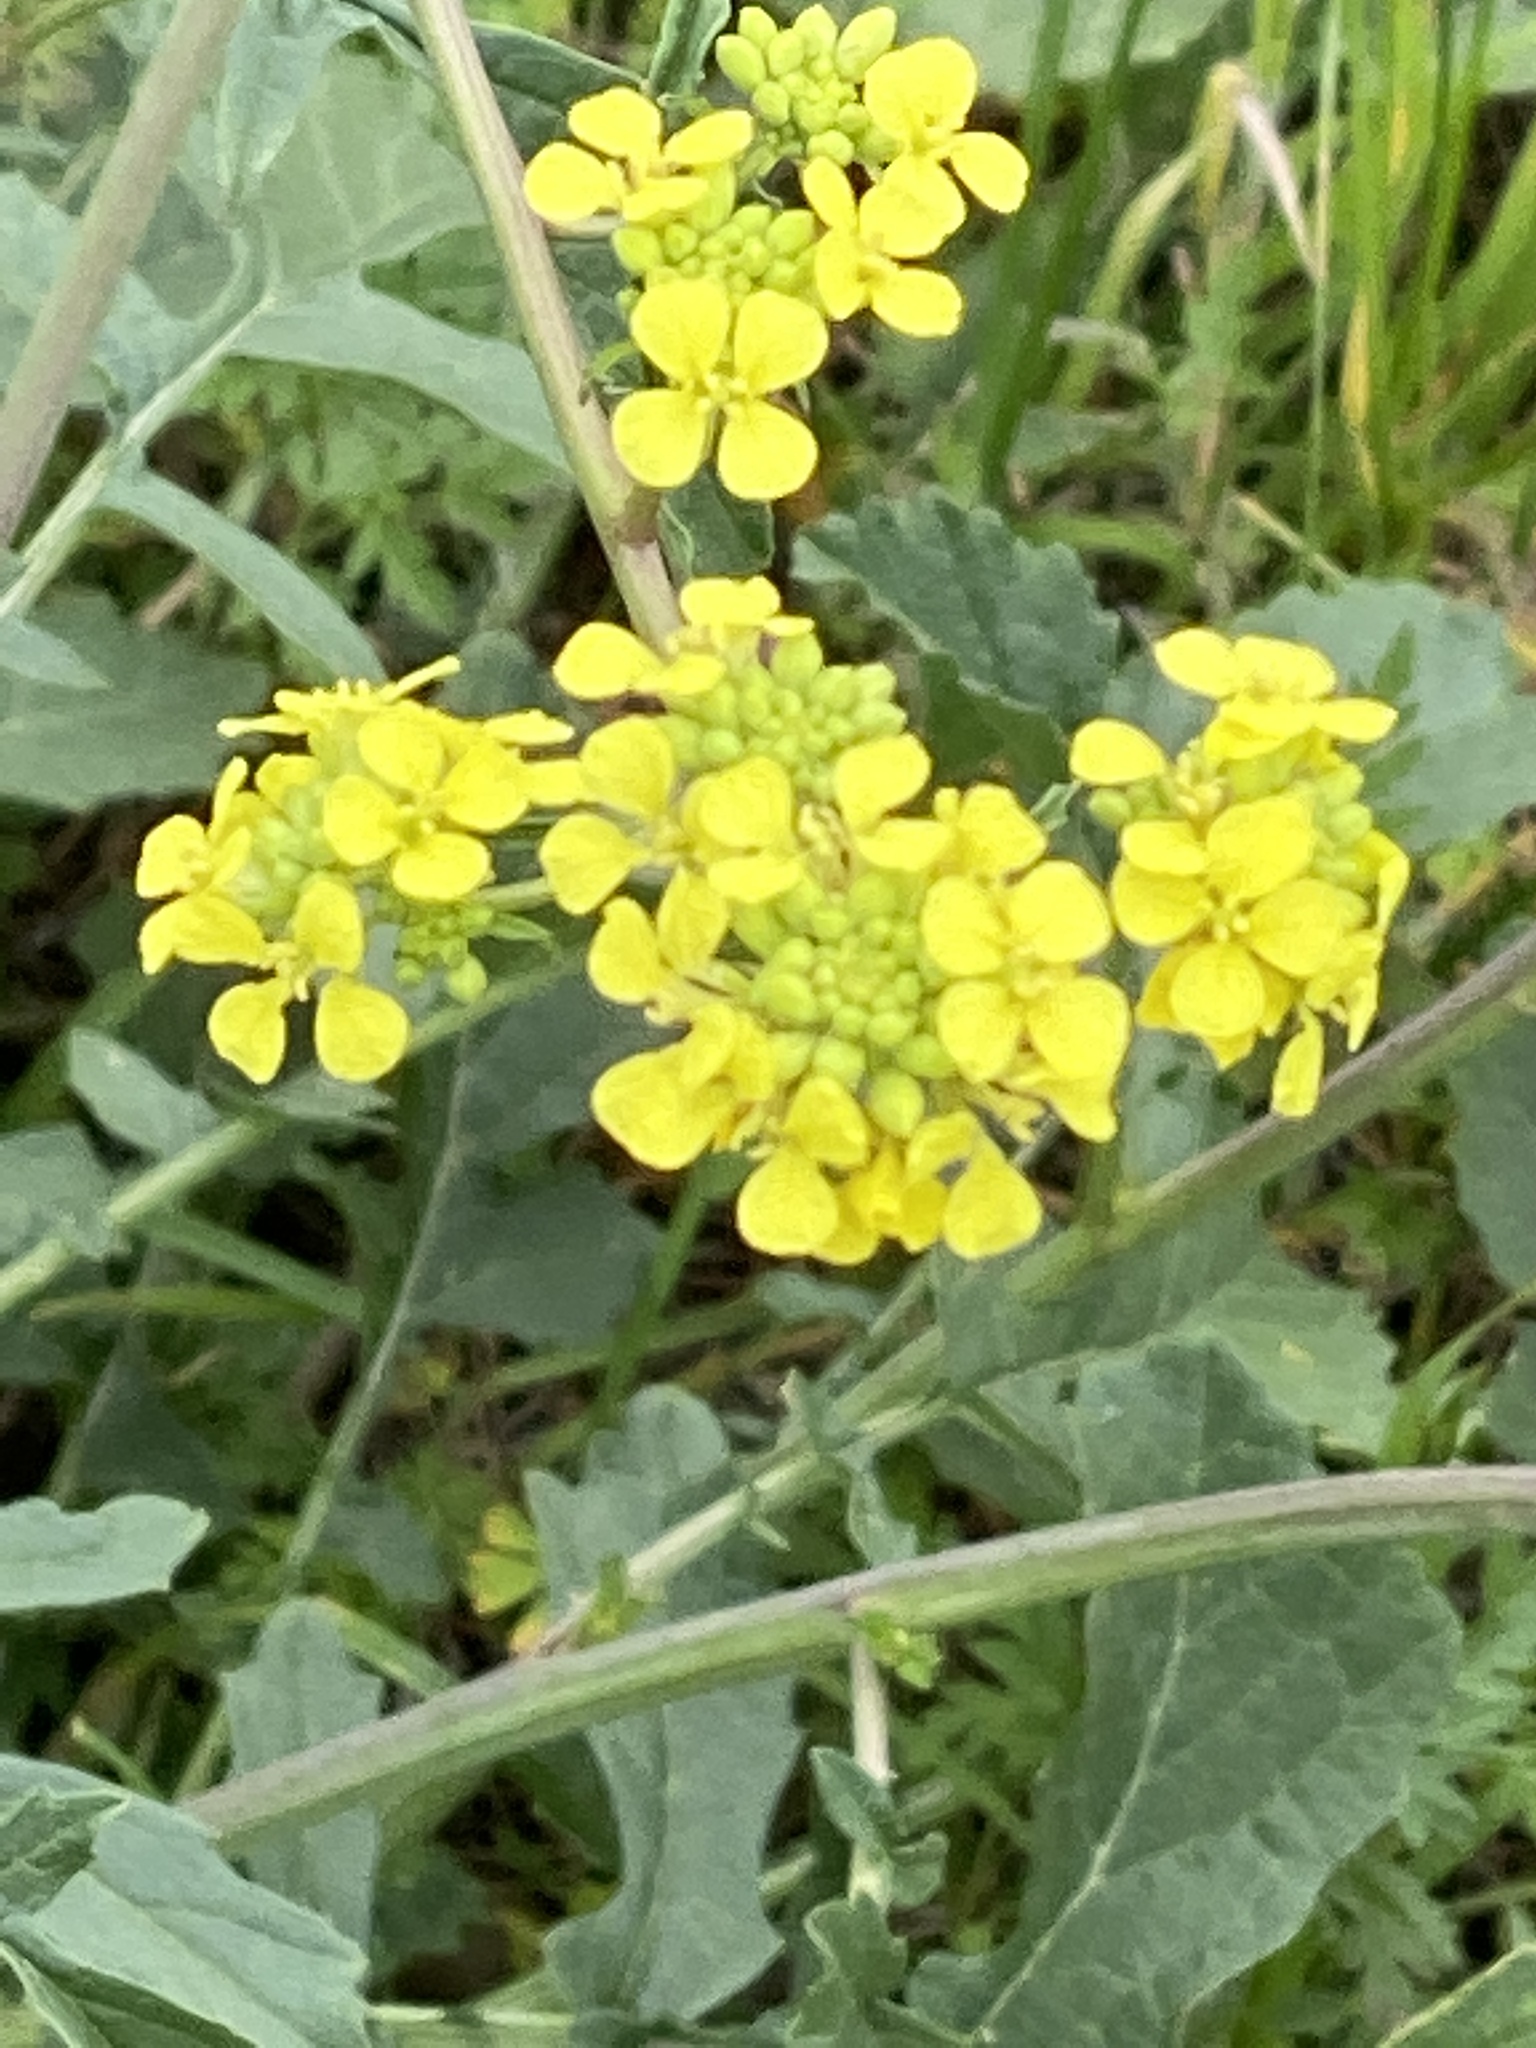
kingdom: Plantae
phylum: Tracheophyta
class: Magnoliopsida
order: Brassicales
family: Brassicaceae
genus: Rapistrum
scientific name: Rapistrum rugosum
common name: Annual bastardcabbage
